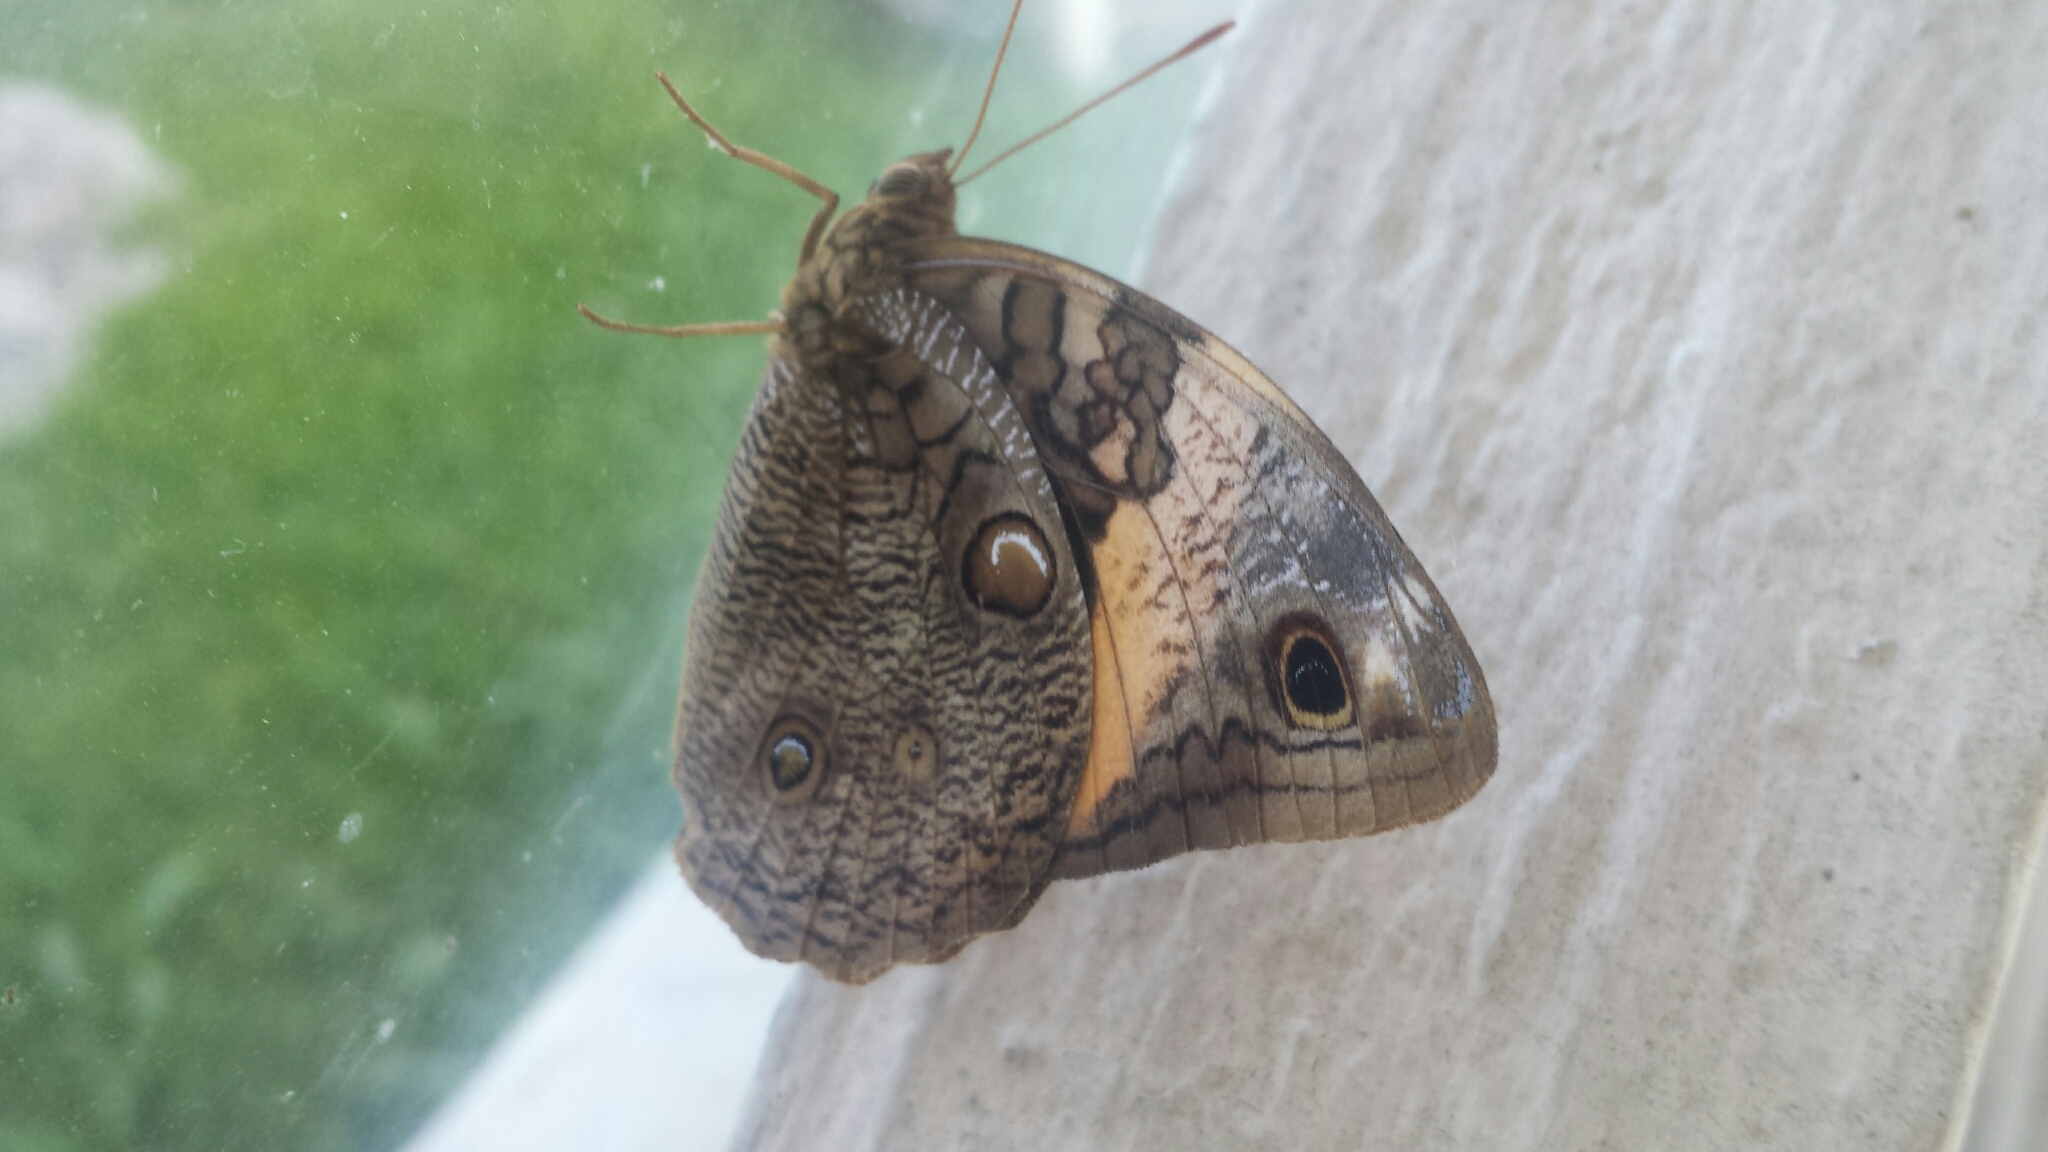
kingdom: Animalia
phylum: Arthropoda
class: Insecta
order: Lepidoptera
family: Nymphalidae
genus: Opsiphanes
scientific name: Opsiphanes fabricii
